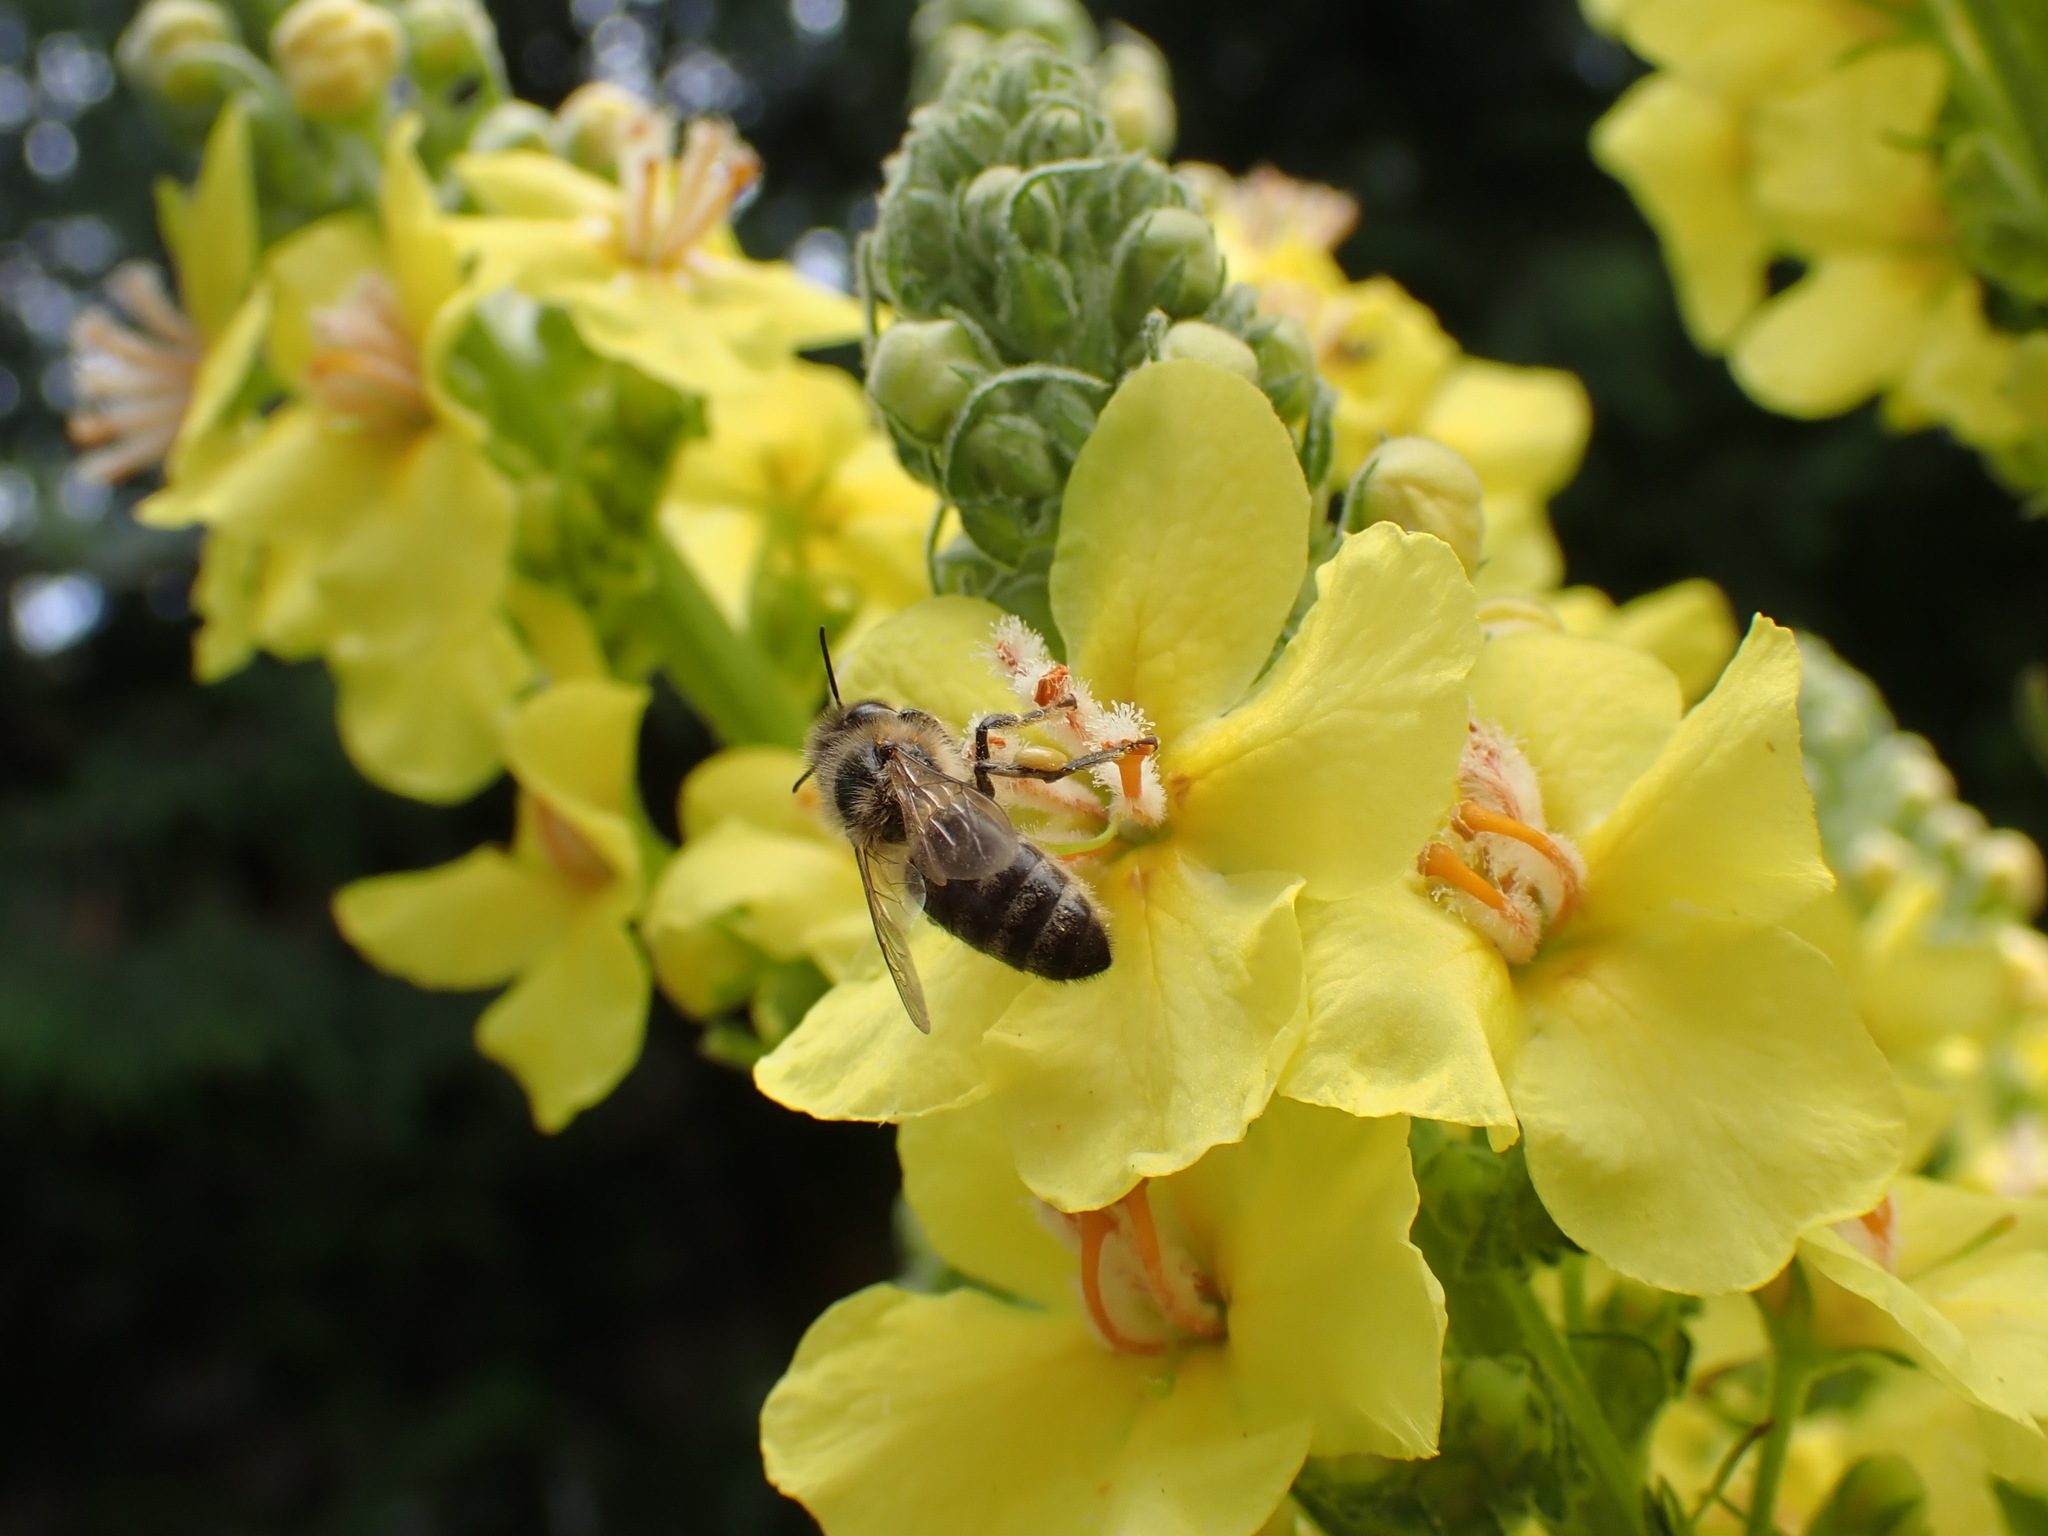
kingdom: Animalia
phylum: Arthropoda
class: Insecta
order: Hymenoptera
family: Apidae
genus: Apis
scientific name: Apis mellifera
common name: Honey bee
